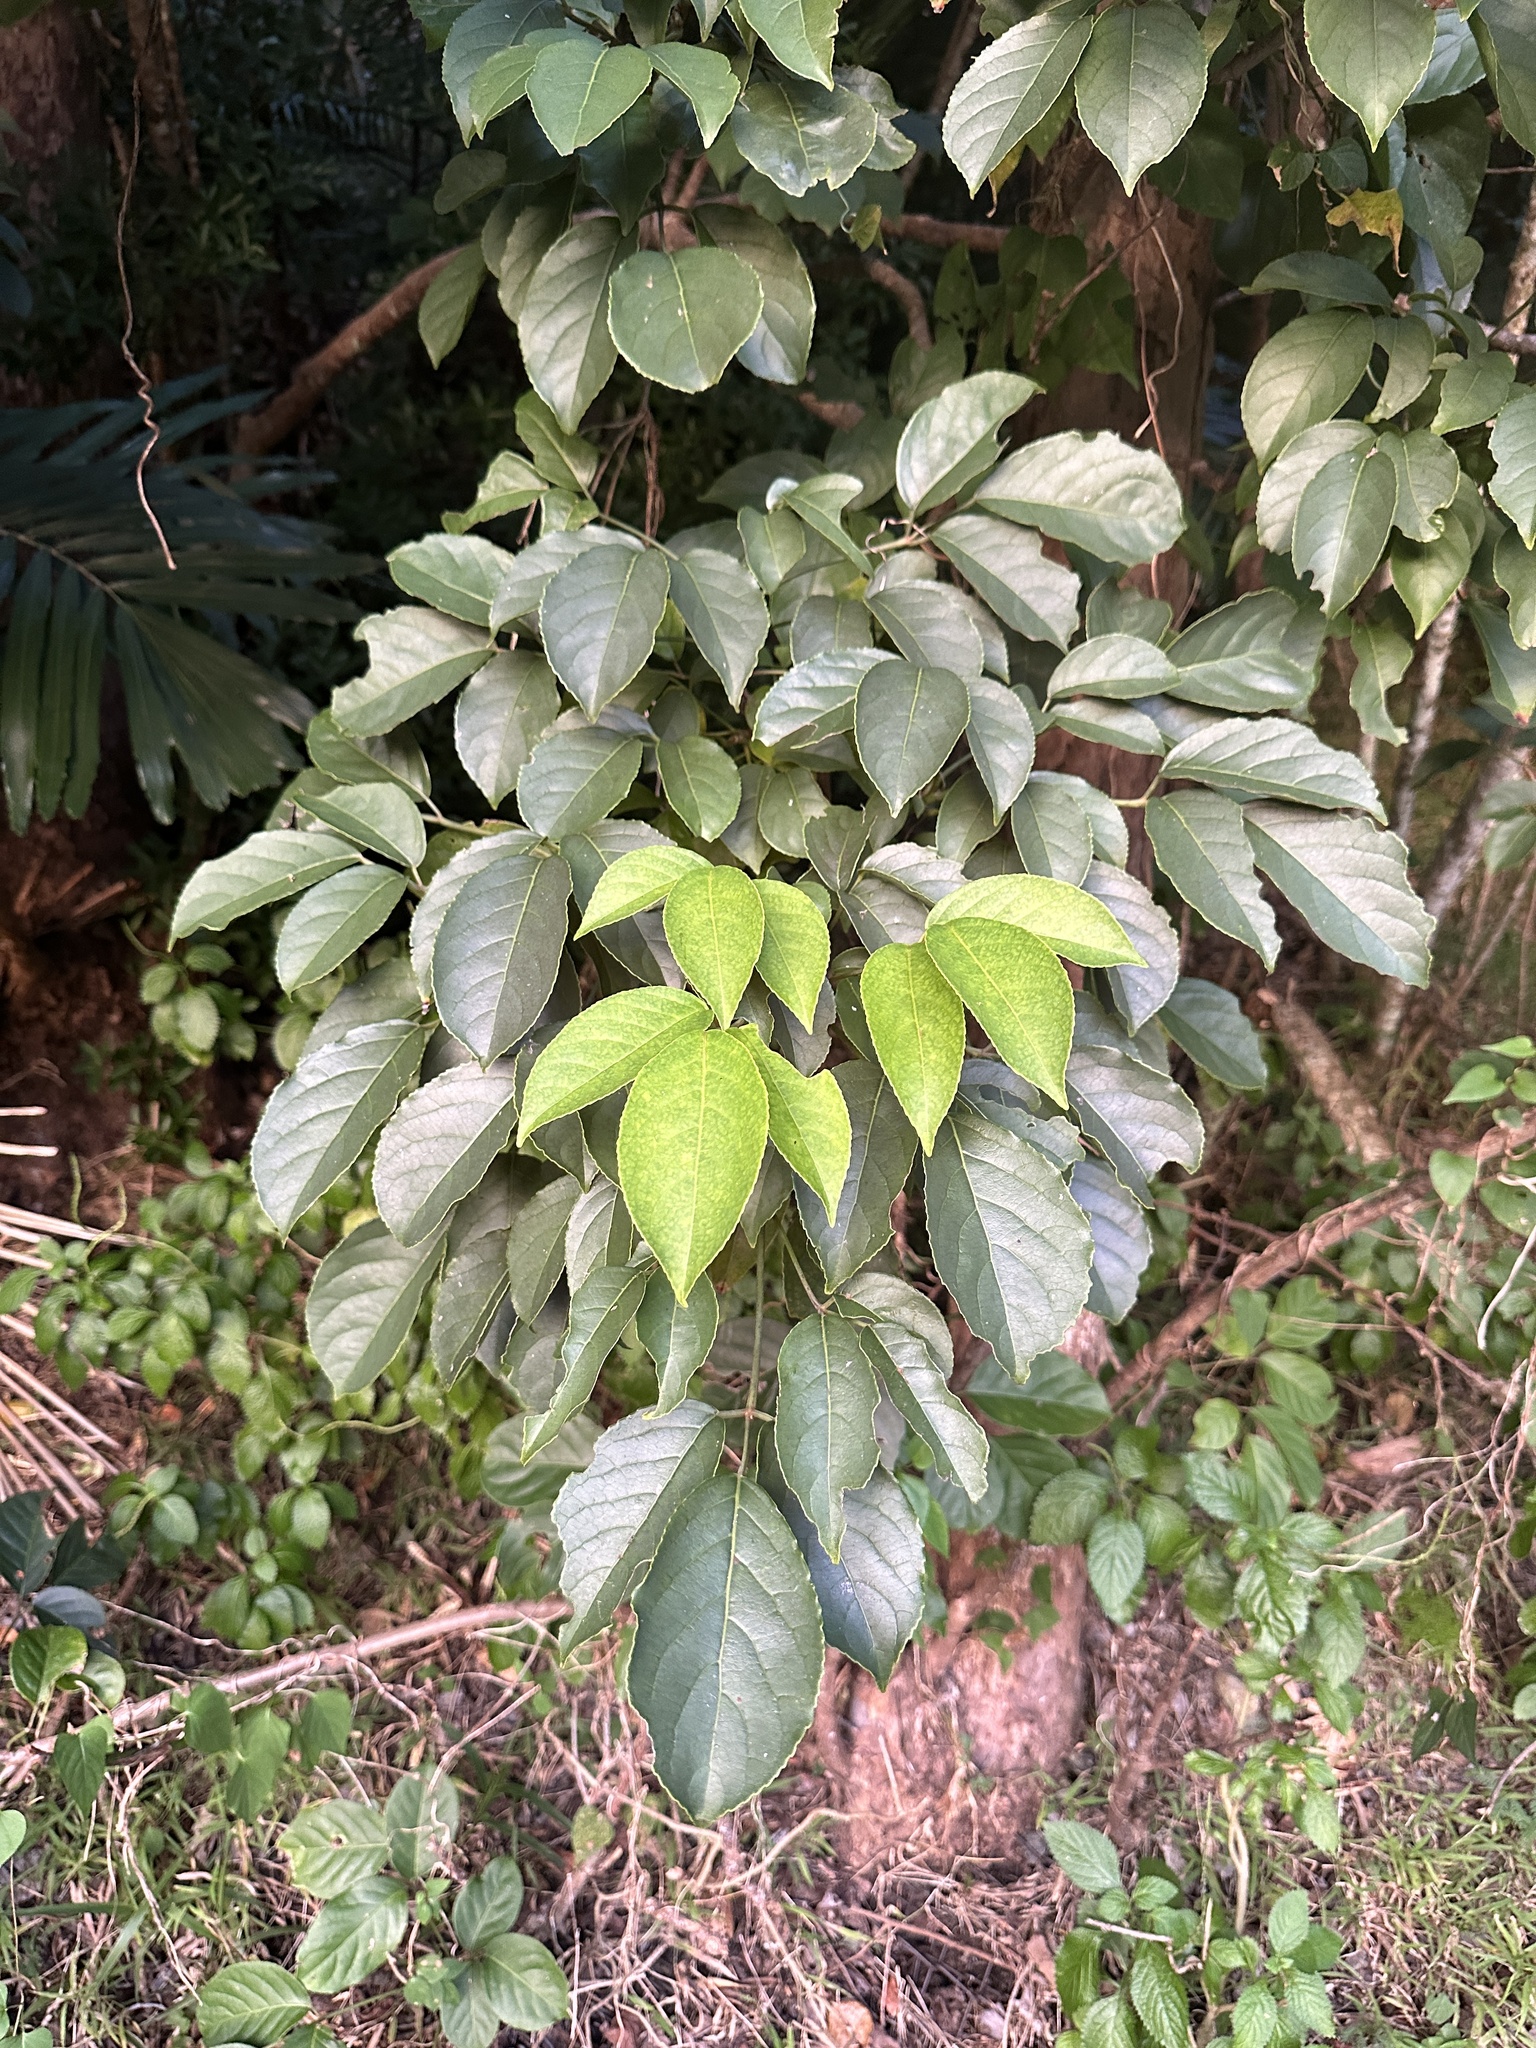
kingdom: Plantae
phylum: Tracheophyta
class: Magnoliopsida
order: Malpighiales
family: Phyllanthaceae
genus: Bischofia
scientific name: Bischofia javanica
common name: Javanese bishopwood
